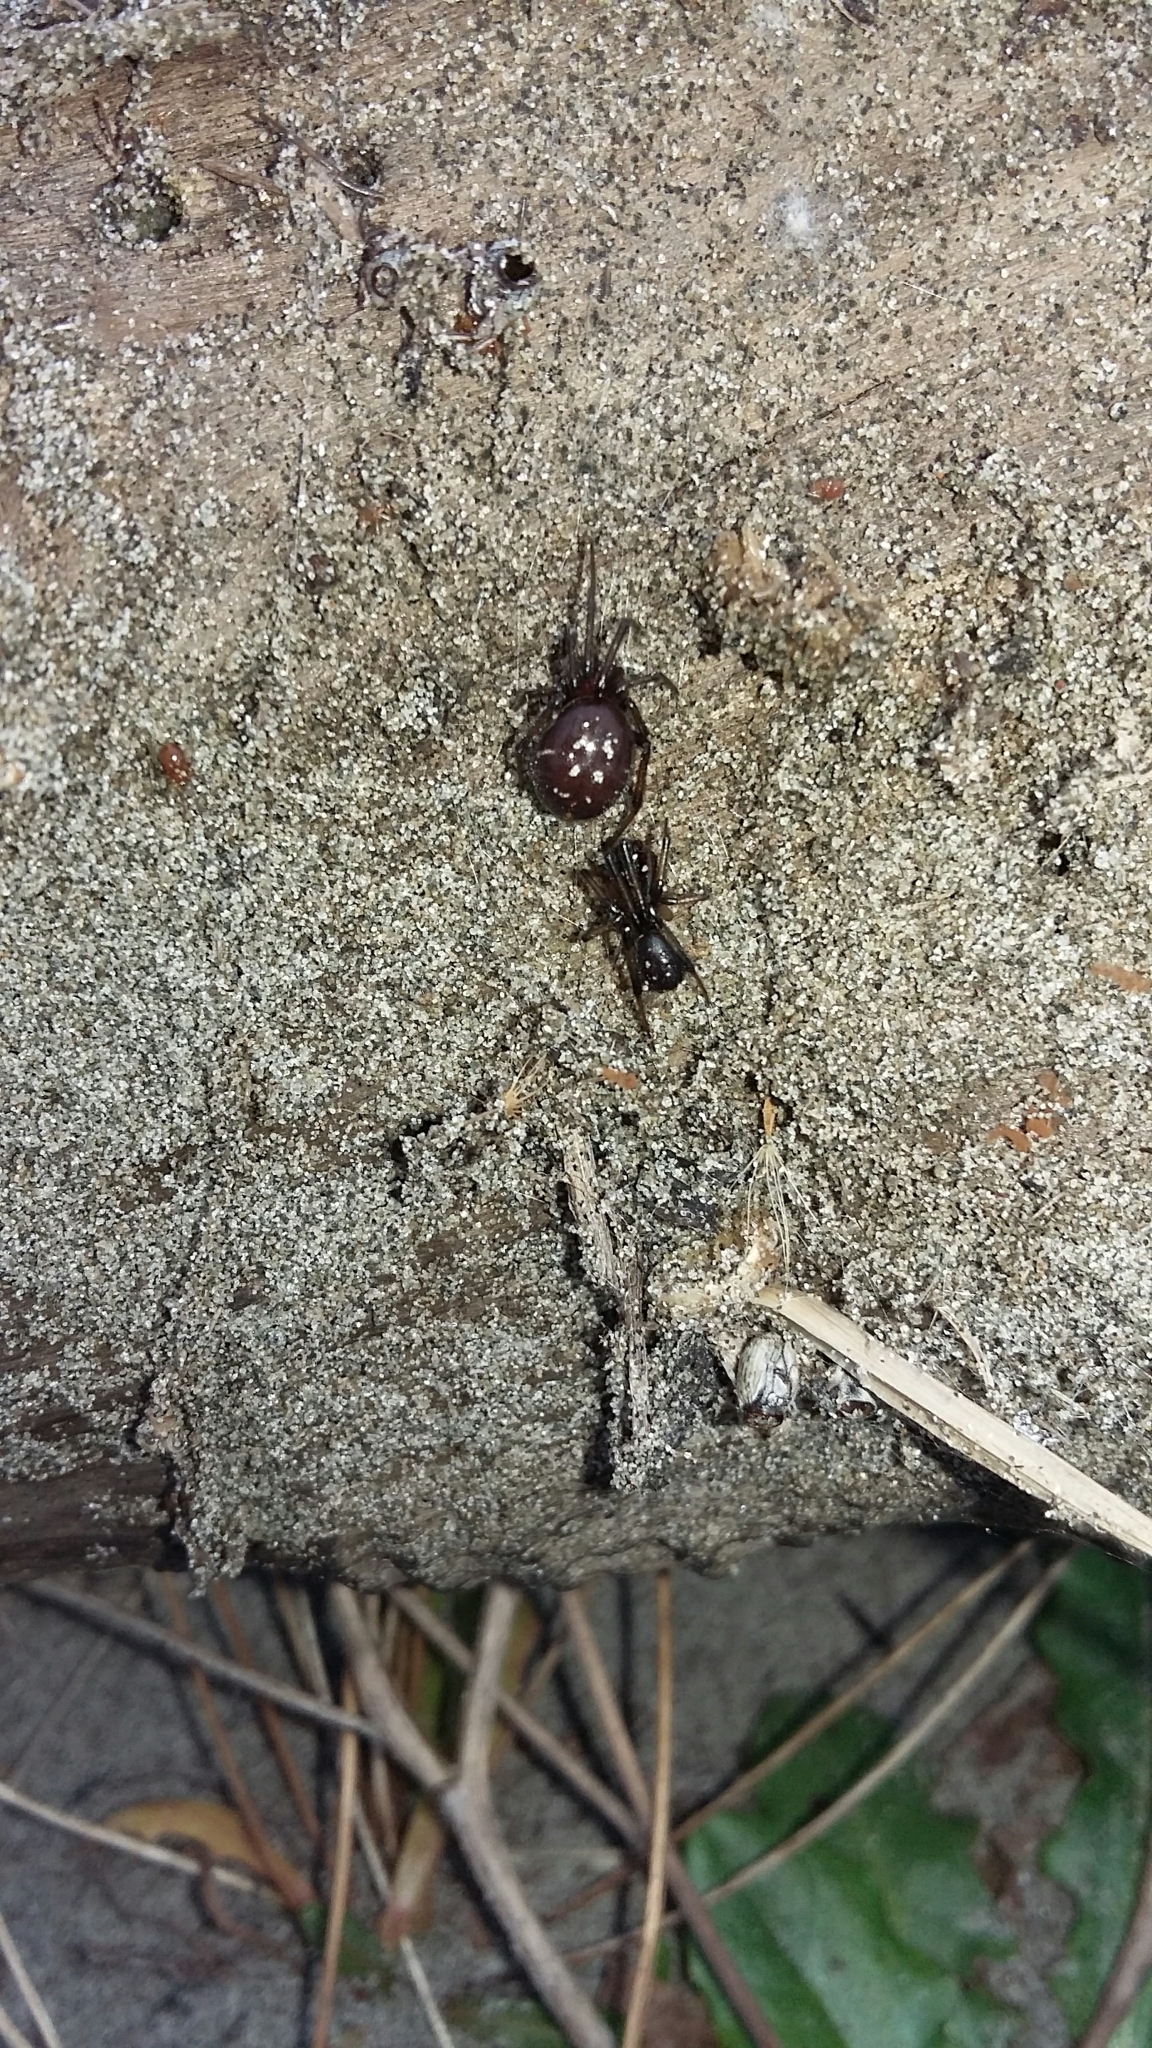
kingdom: Animalia
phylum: Arthropoda
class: Arachnida
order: Araneae
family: Theridiidae
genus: Steatoda
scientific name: Steatoda capensis
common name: Cobweb weaver
